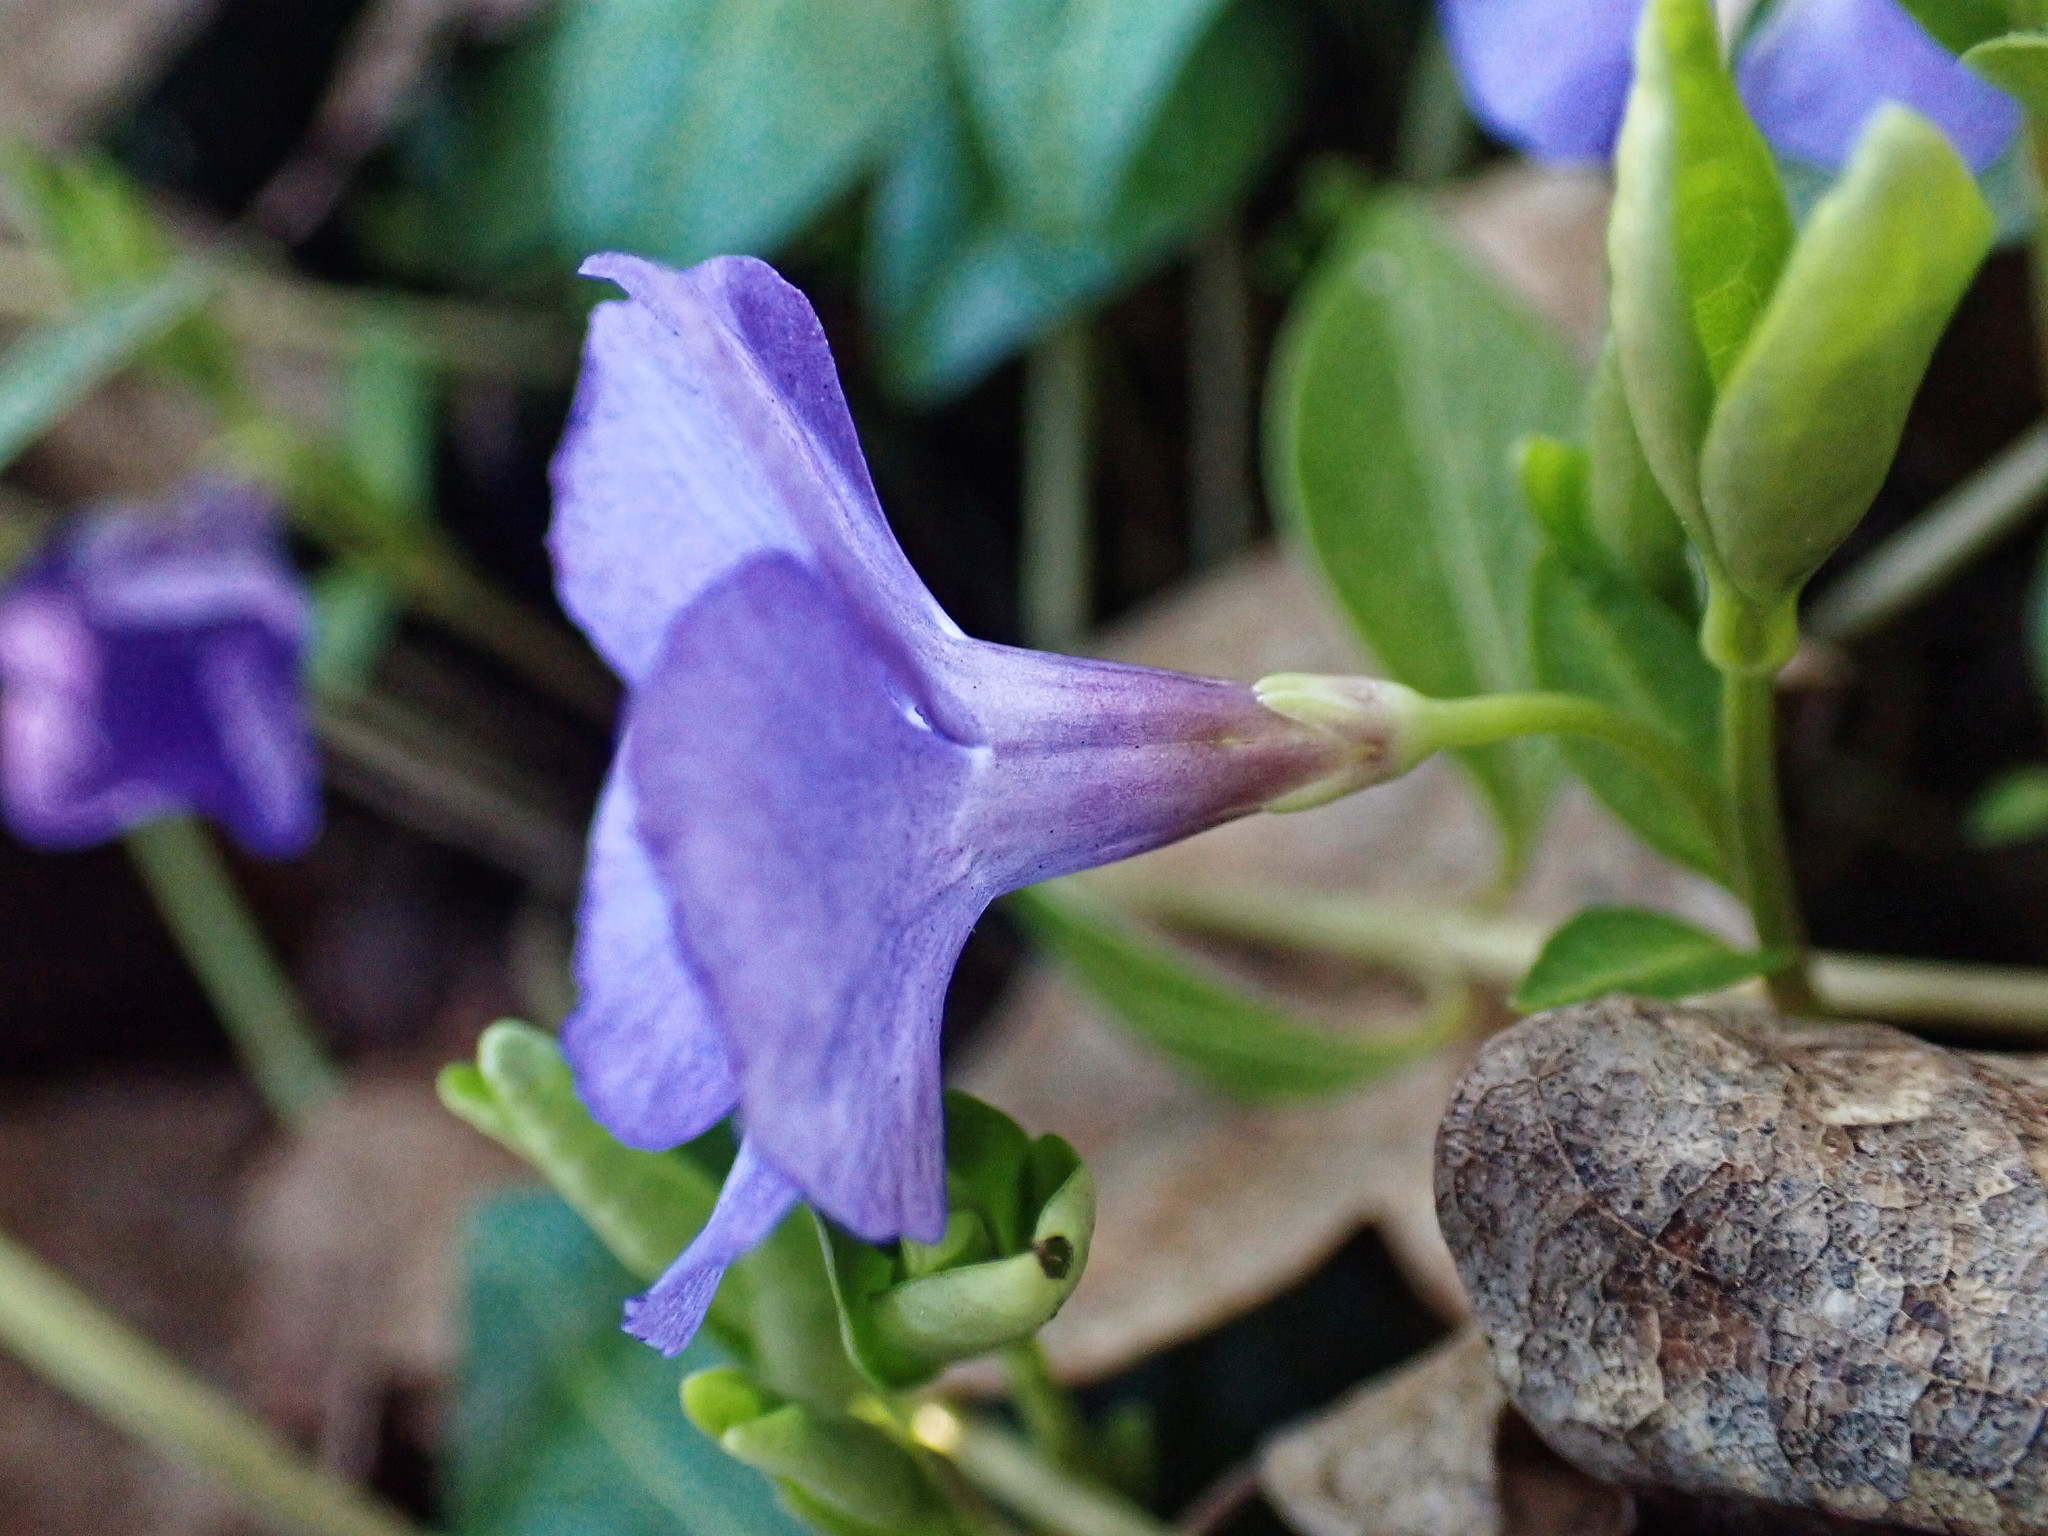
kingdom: Plantae
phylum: Tracheophyta
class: Magnoliopsida
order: Gentianales
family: Apocynaceae
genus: Vinca
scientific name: Vinca minor
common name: Lesser periwinkle
